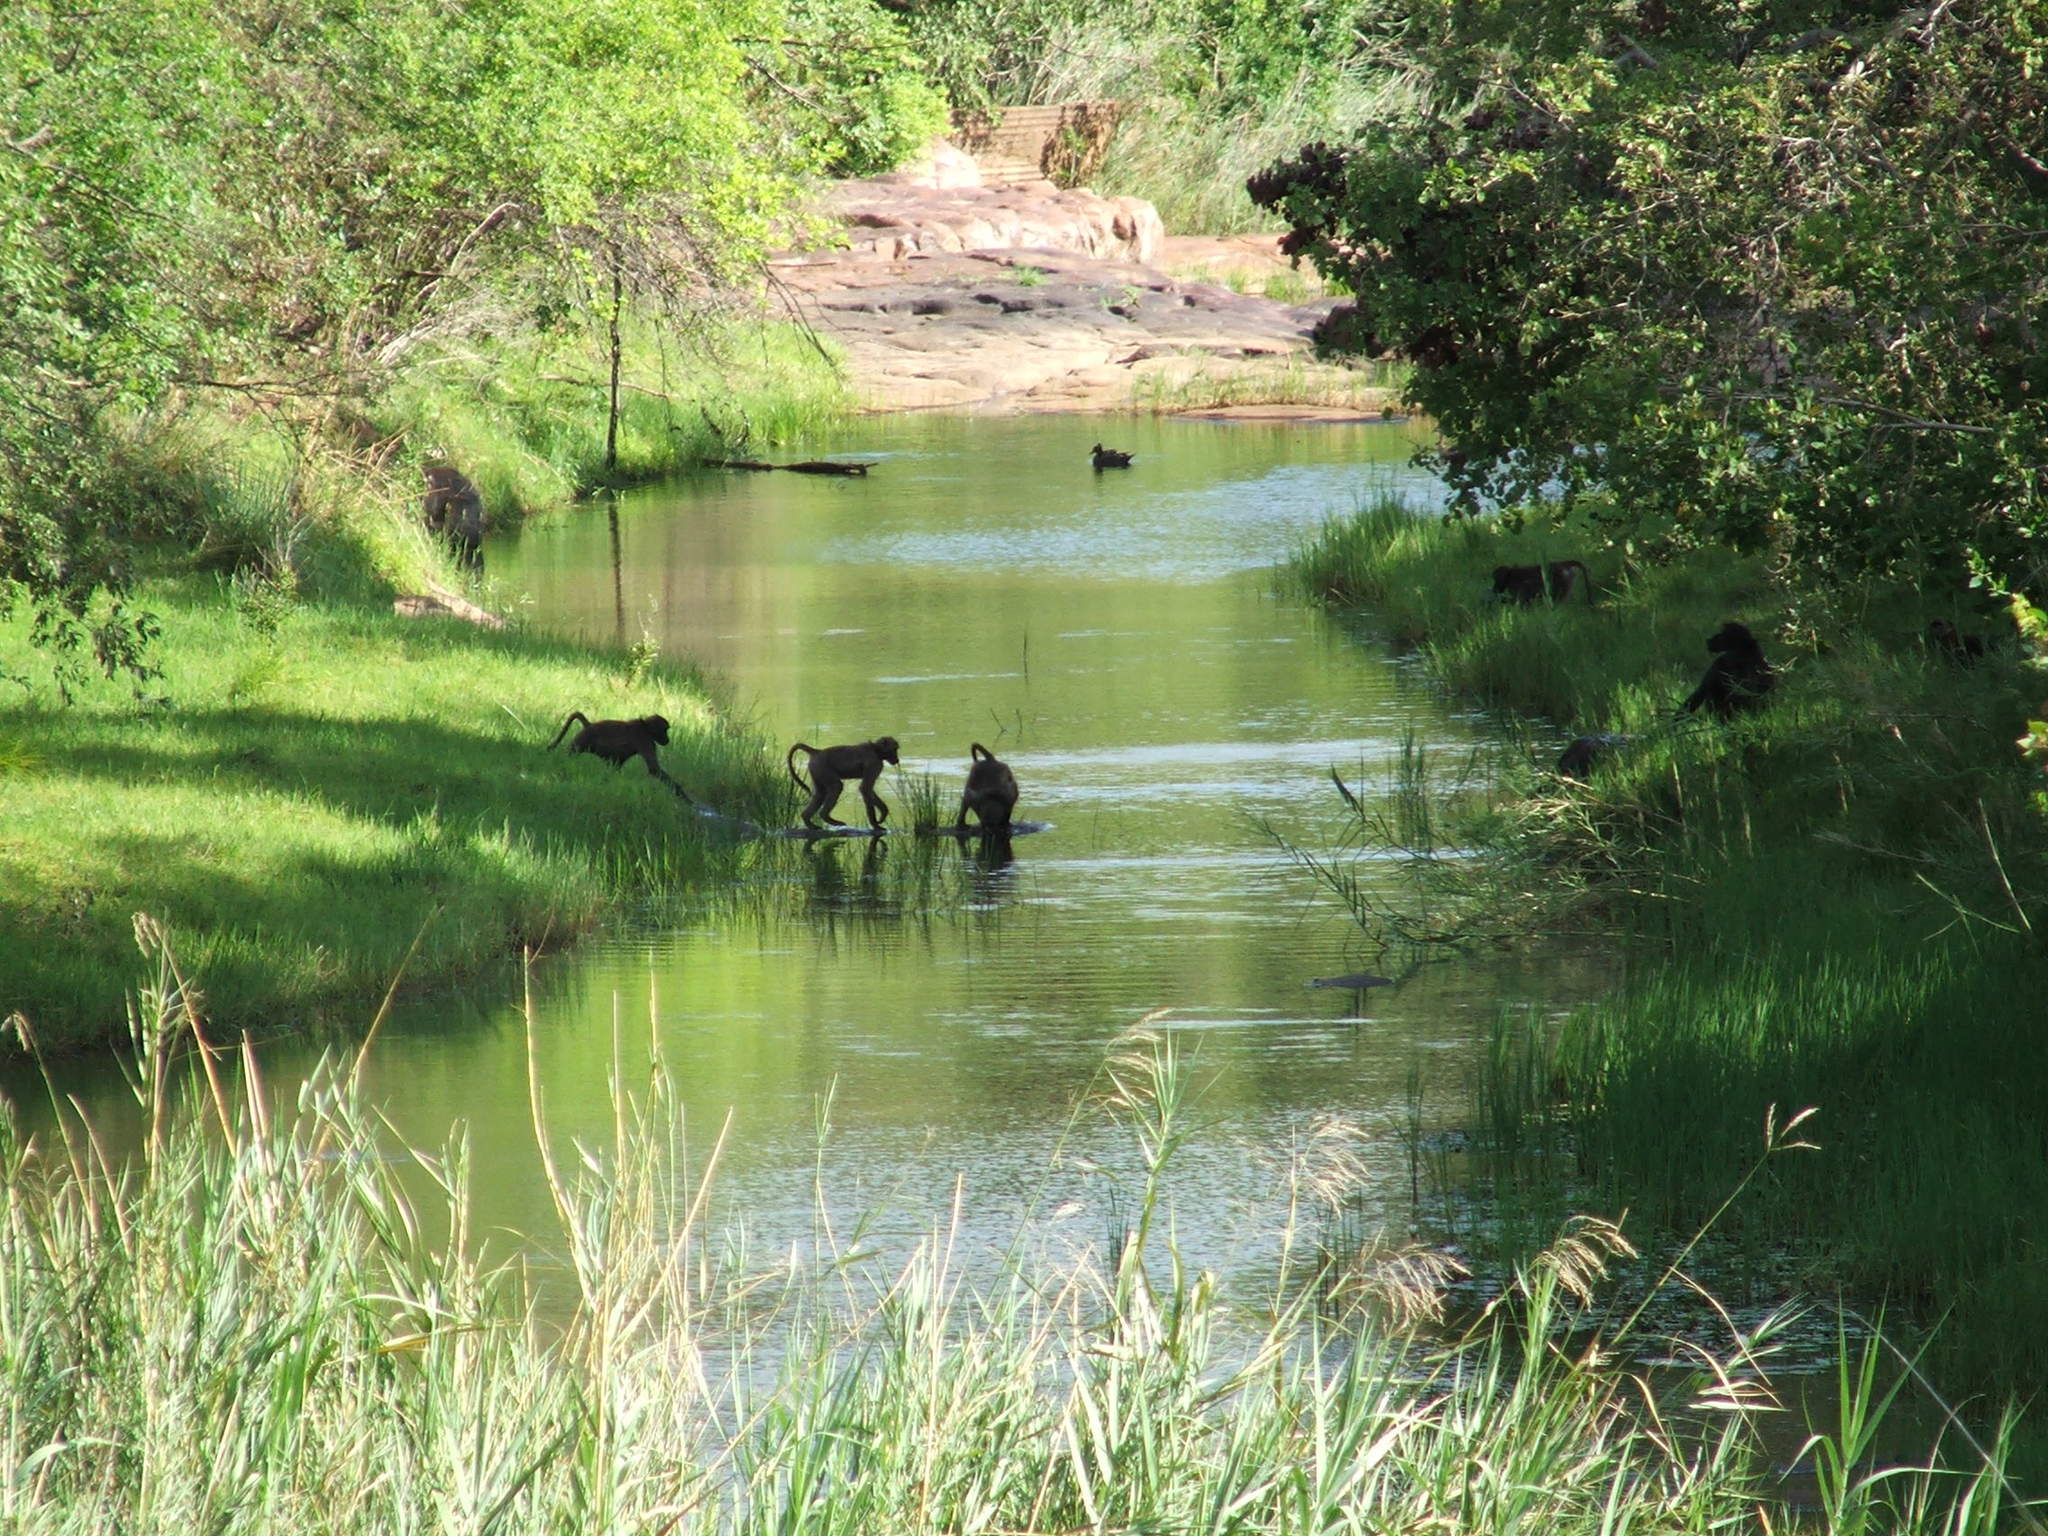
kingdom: Animalia
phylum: Chordata
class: Mammalia
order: Primates
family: Cercopithecidae
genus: Papio
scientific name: Papio ursinus
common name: Chacma baboon
